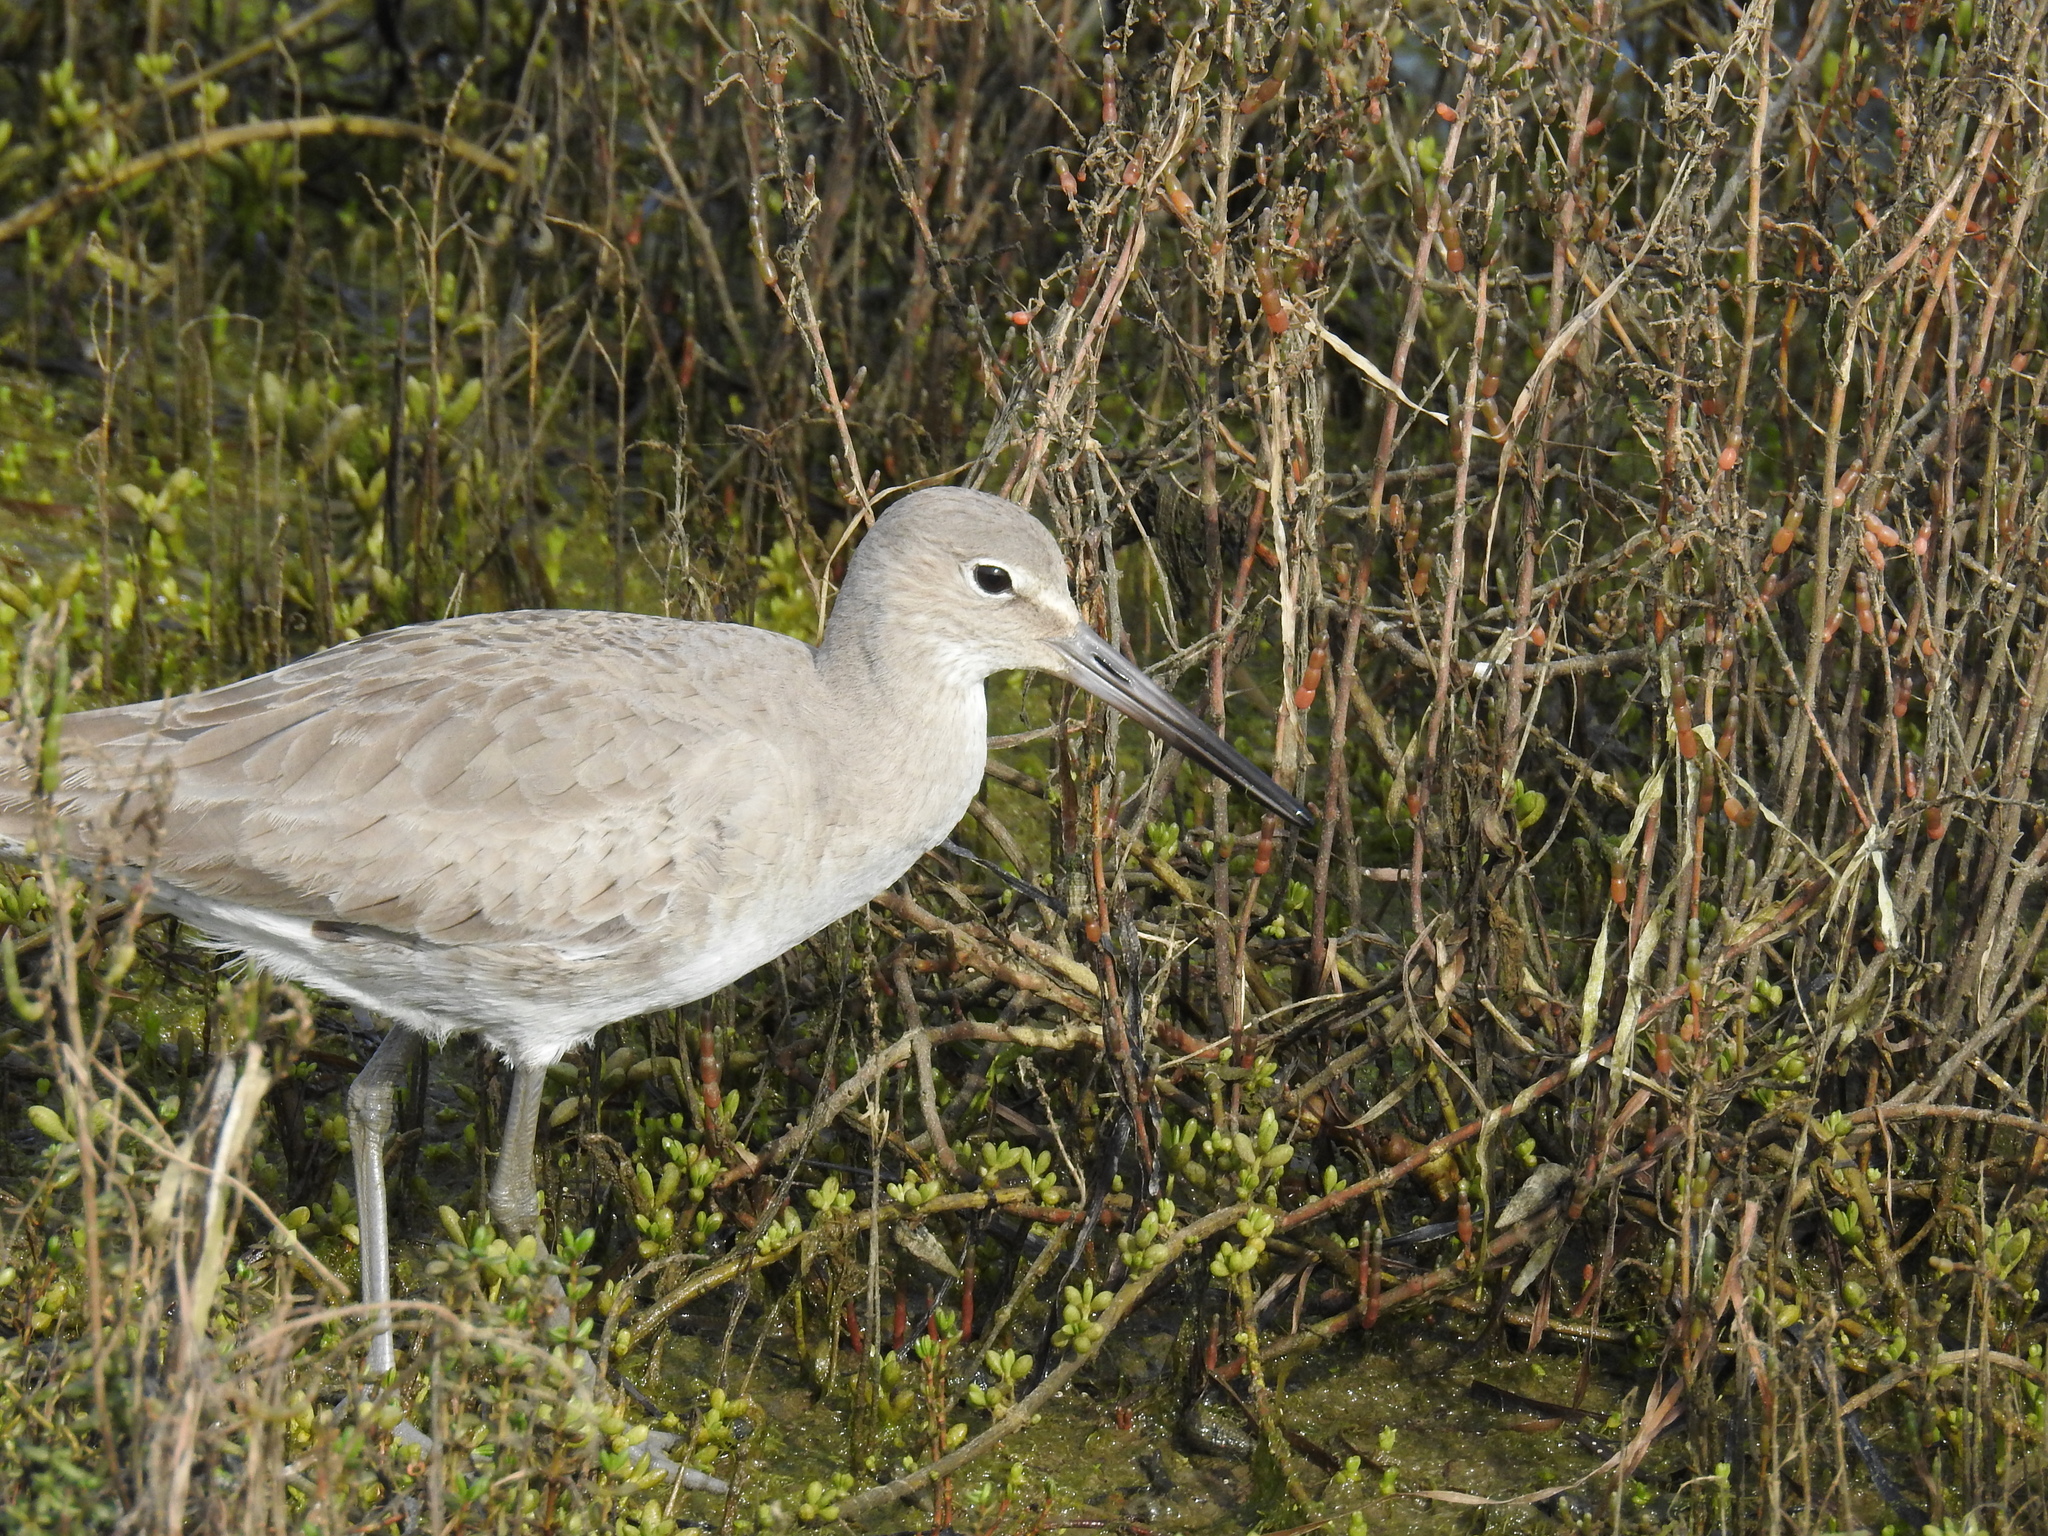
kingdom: Animalia
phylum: Chordata
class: Aves
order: Charadriiformes
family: Scolopacidae
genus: Tringa
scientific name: Tringa semipalmata
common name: Willet
